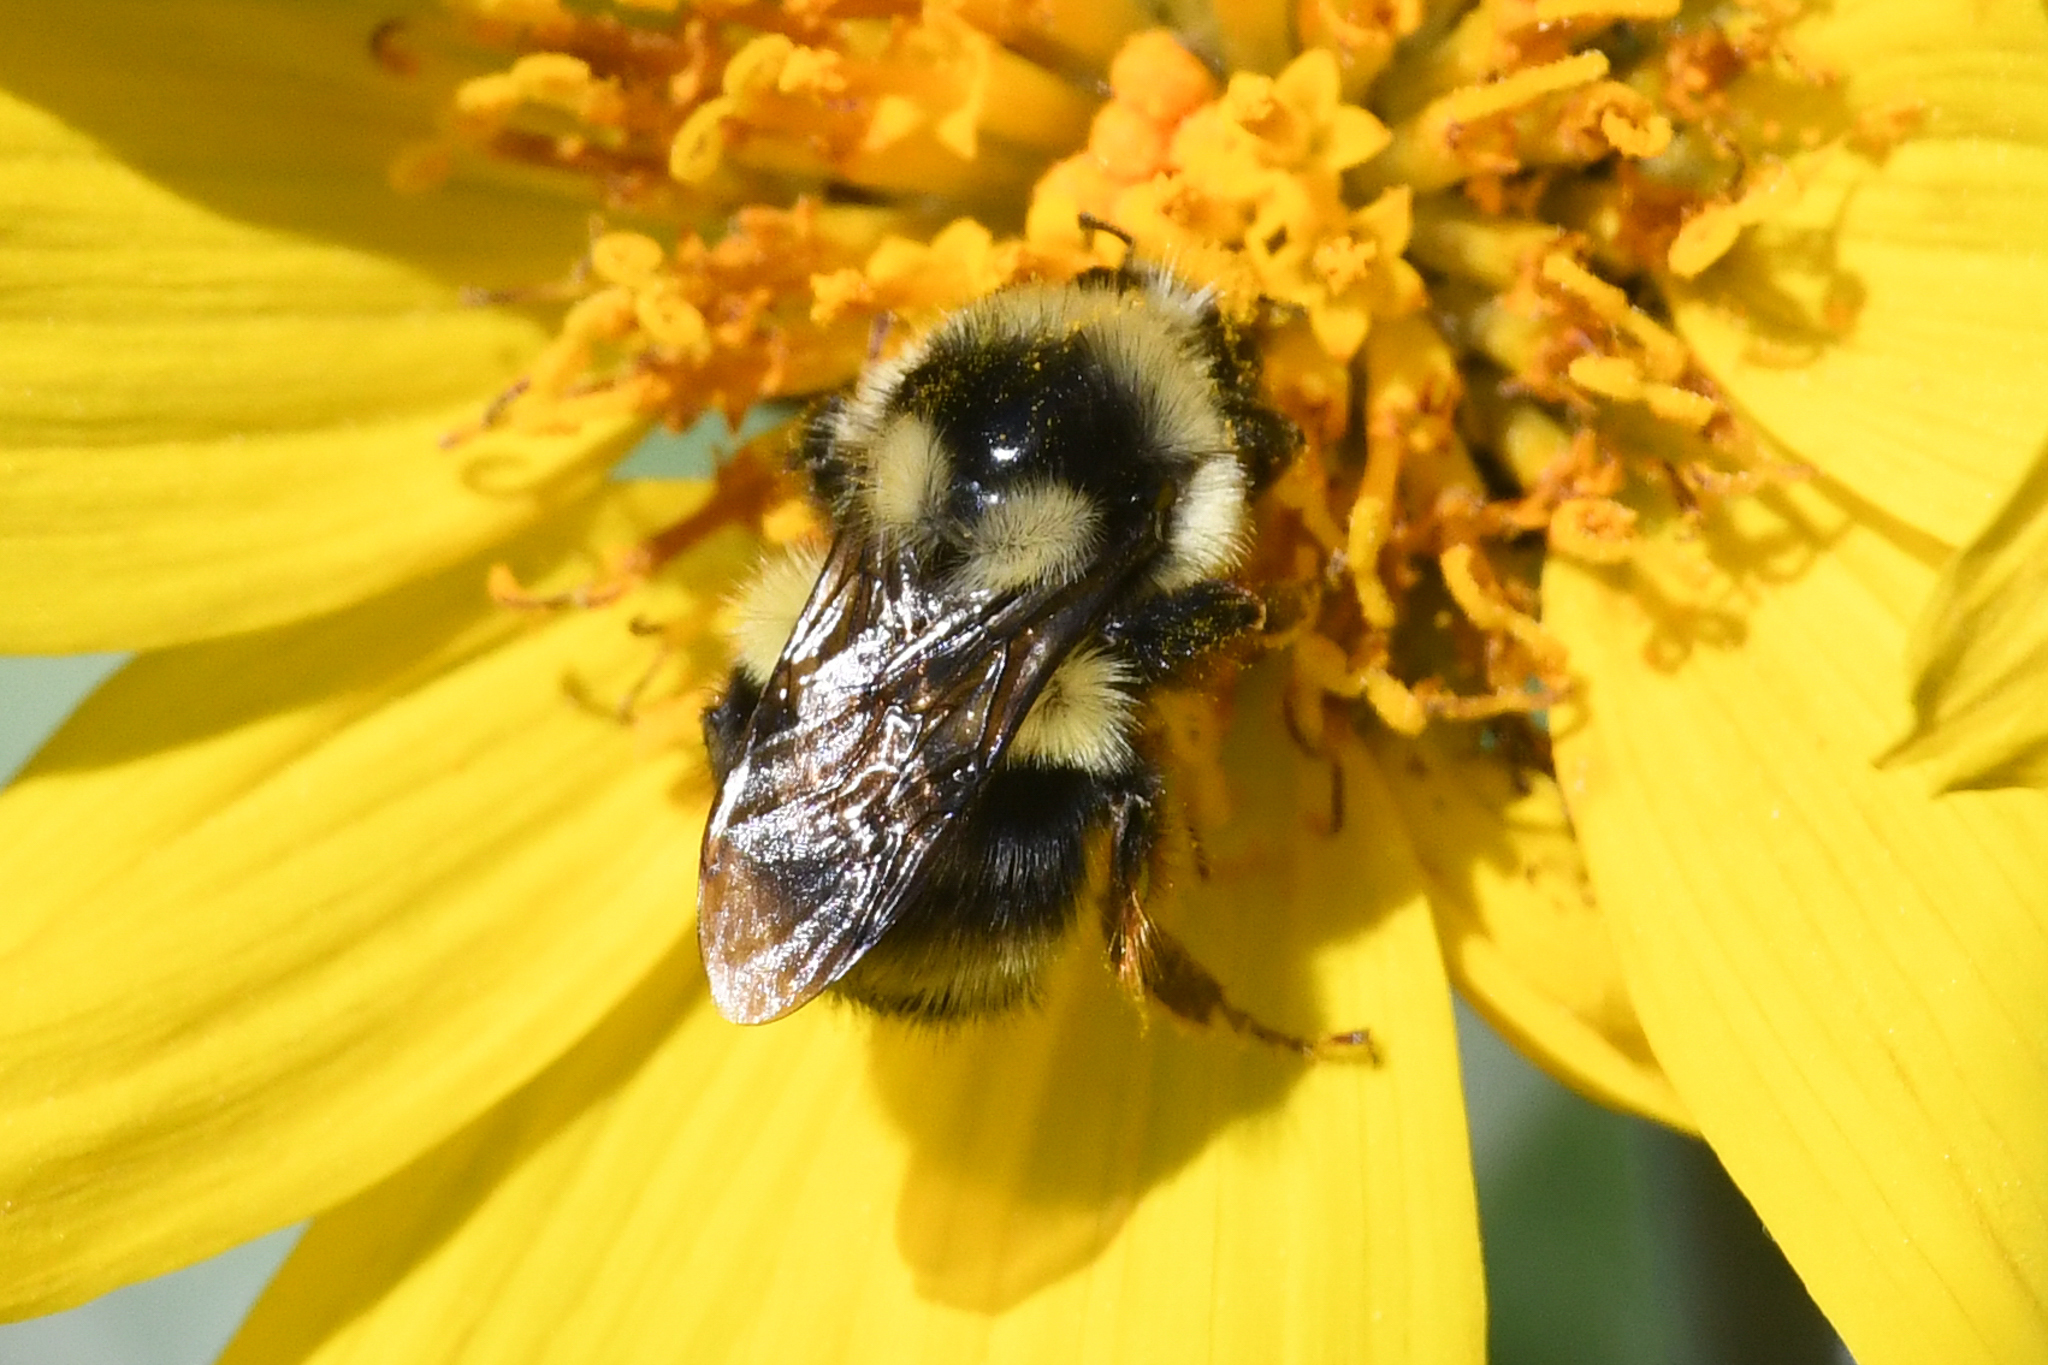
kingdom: Animalia
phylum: Arthropoda
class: Insecta
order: Hymenoptera
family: Apidae
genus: Bombus
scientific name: Bombus vancouverensis
